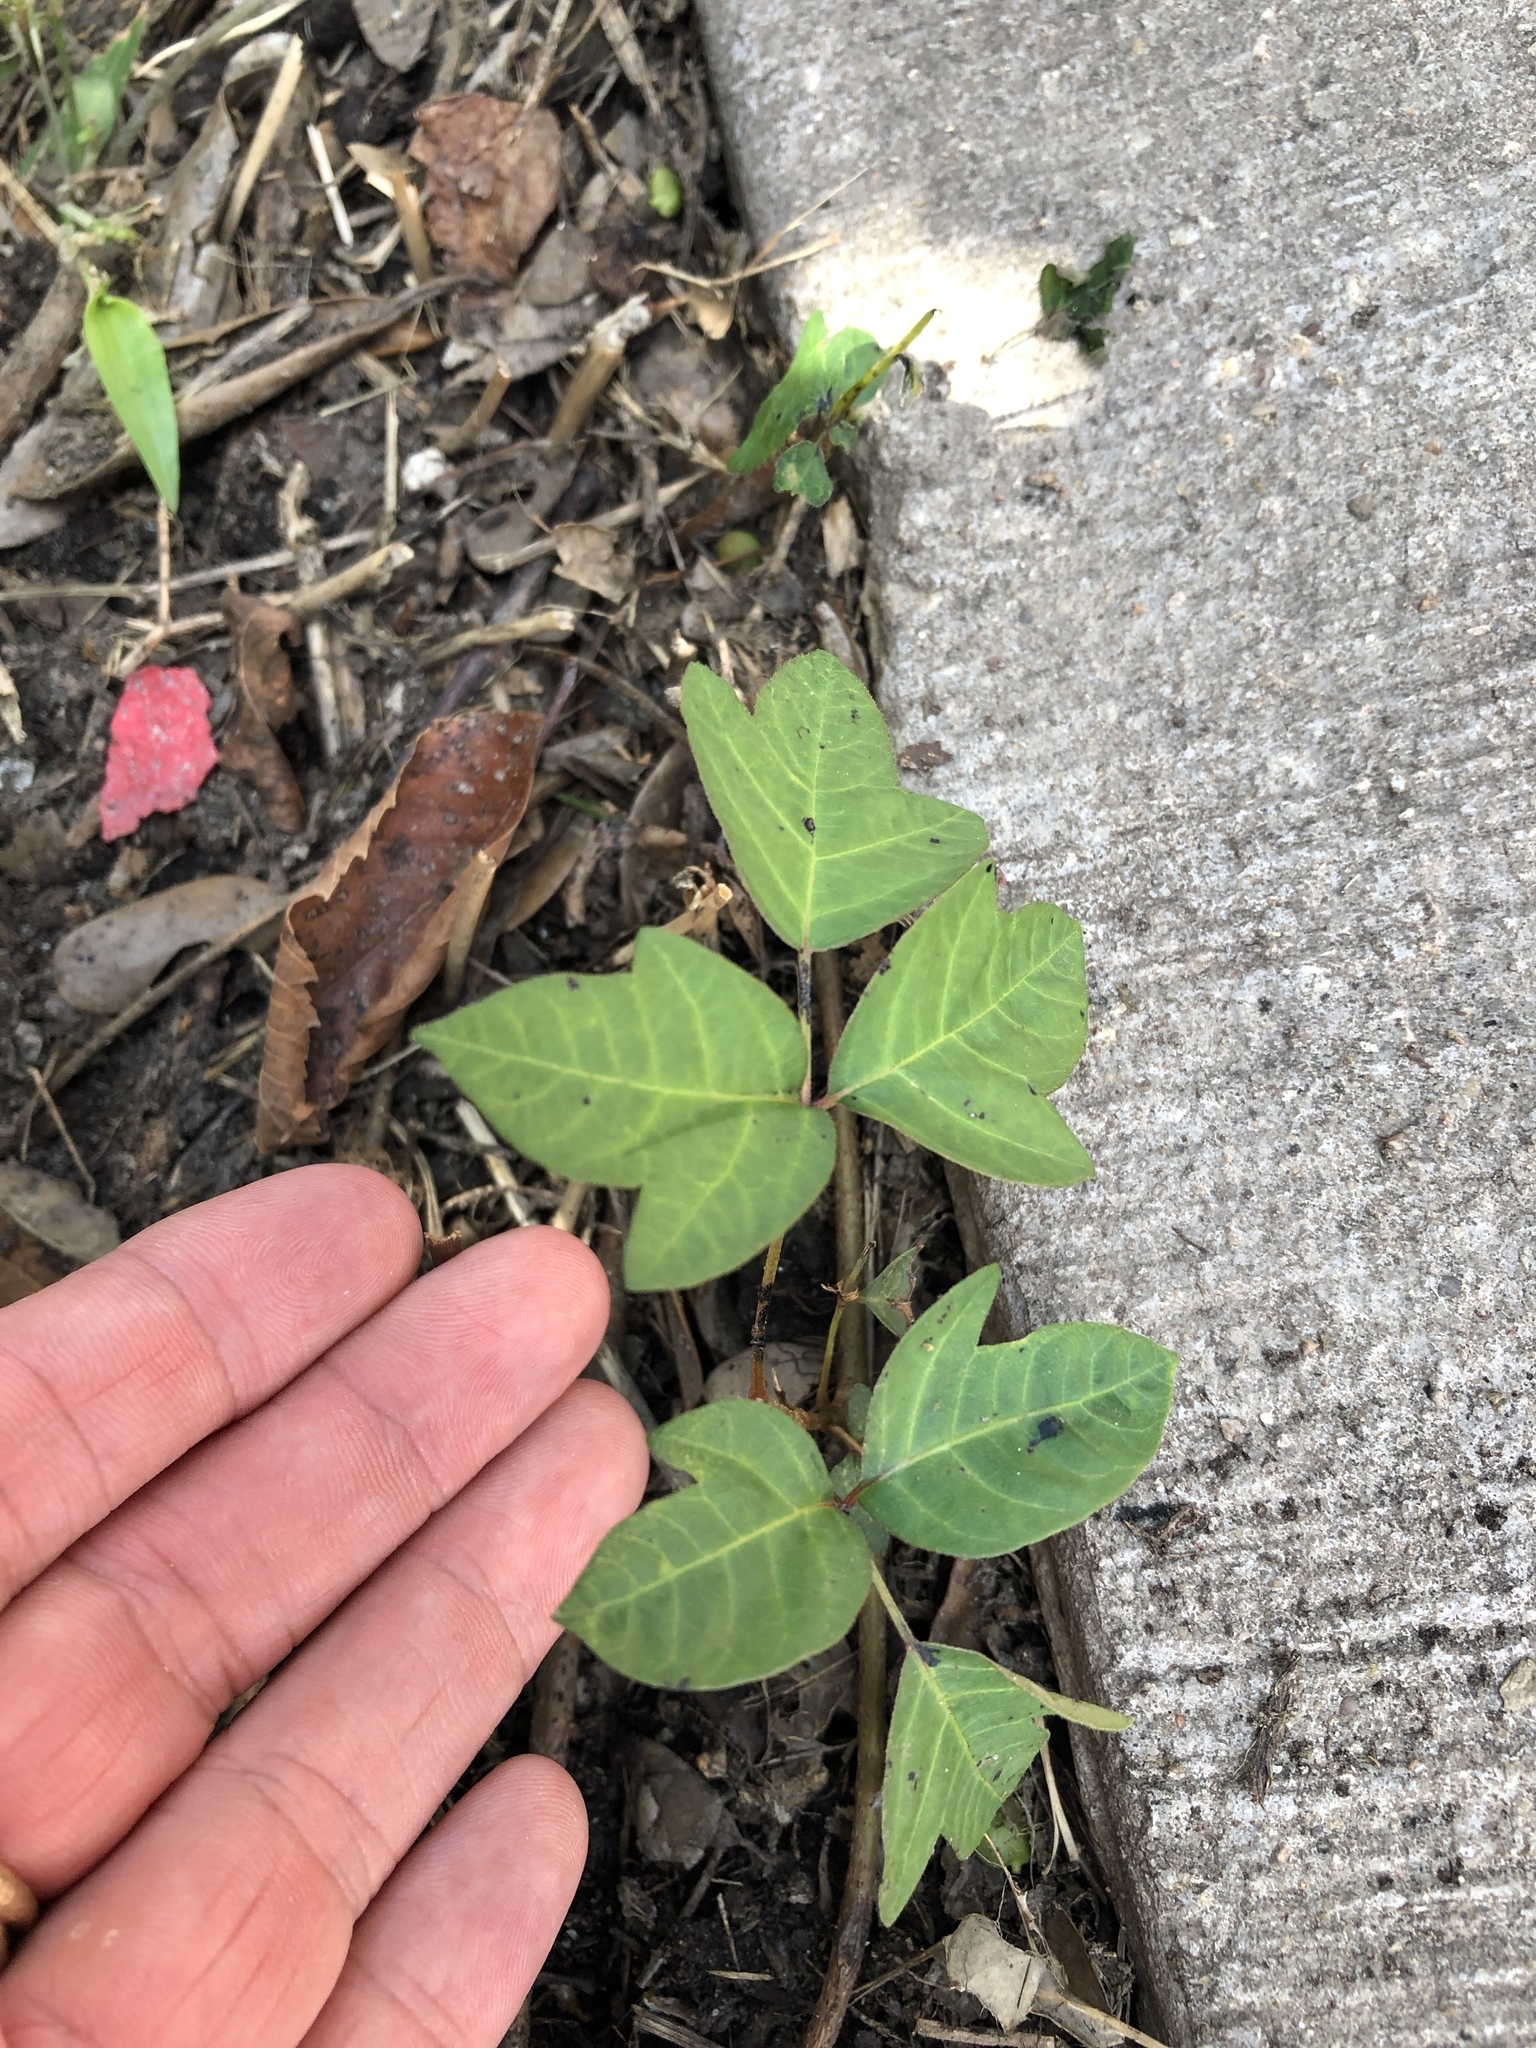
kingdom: Plantae
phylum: Tracheophyta
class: Magnoliopsida
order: Sapindales
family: Anacardiaceae
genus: Toxicodendron
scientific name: Toxicodendron radicans
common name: Poison ivy
